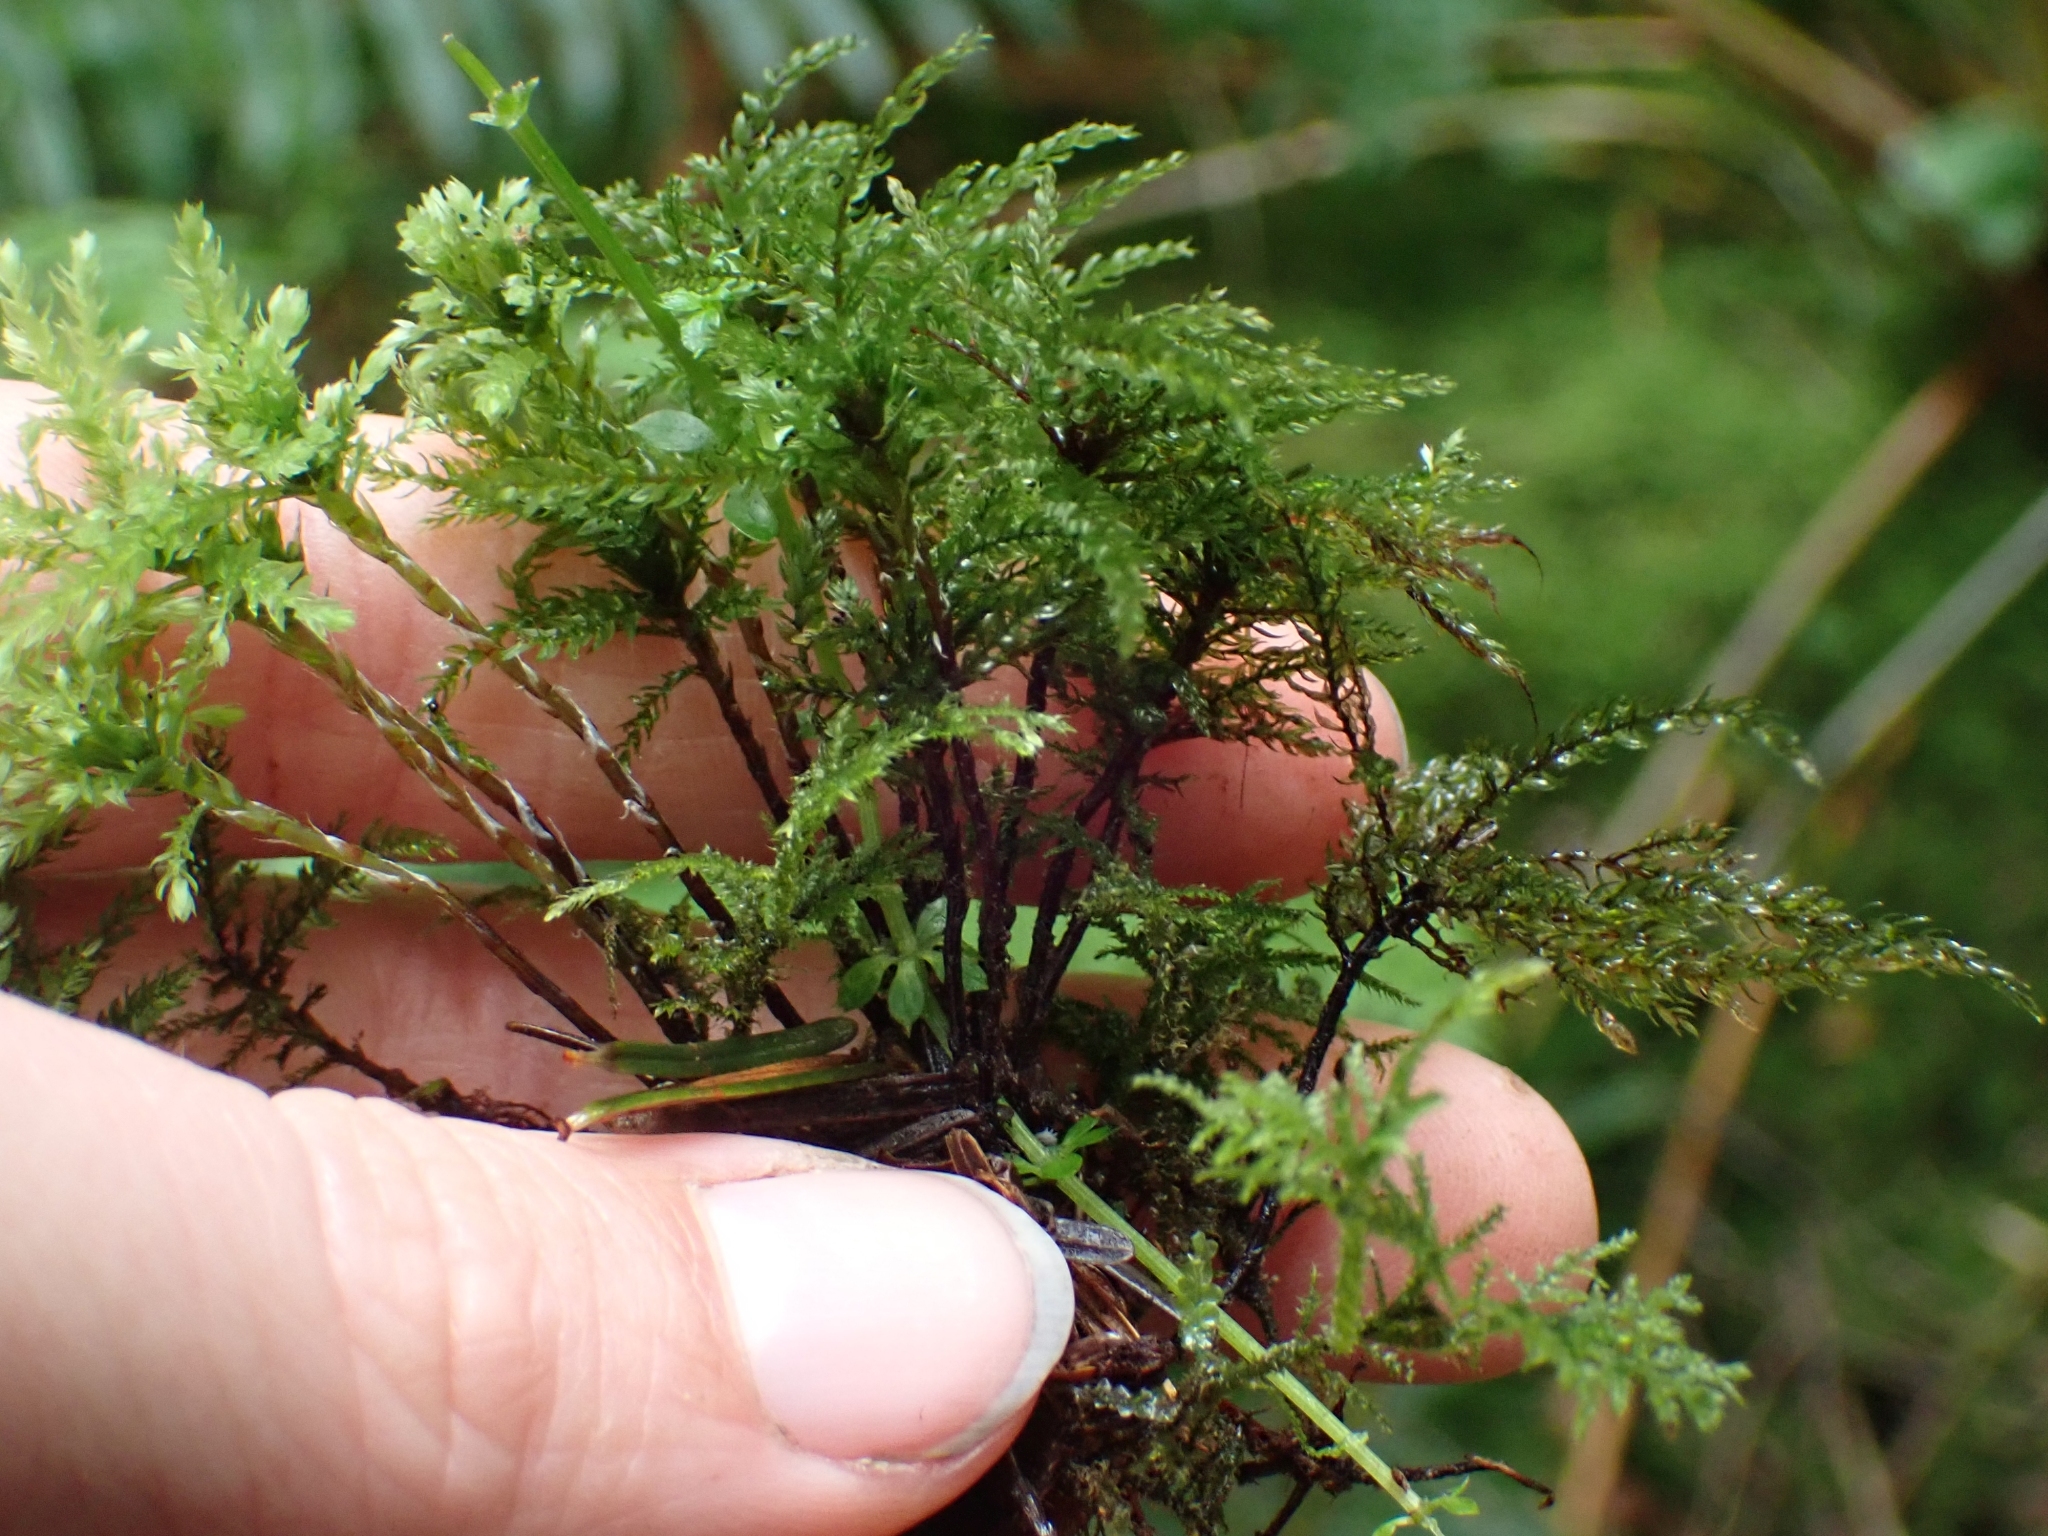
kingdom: Plantae
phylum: Bryophyta
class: Bryopsida
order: Bryales
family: Mniaceae
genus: Leucolepis
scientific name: Leucolepis acanthoneura
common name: Leucolepis umbrella moss
